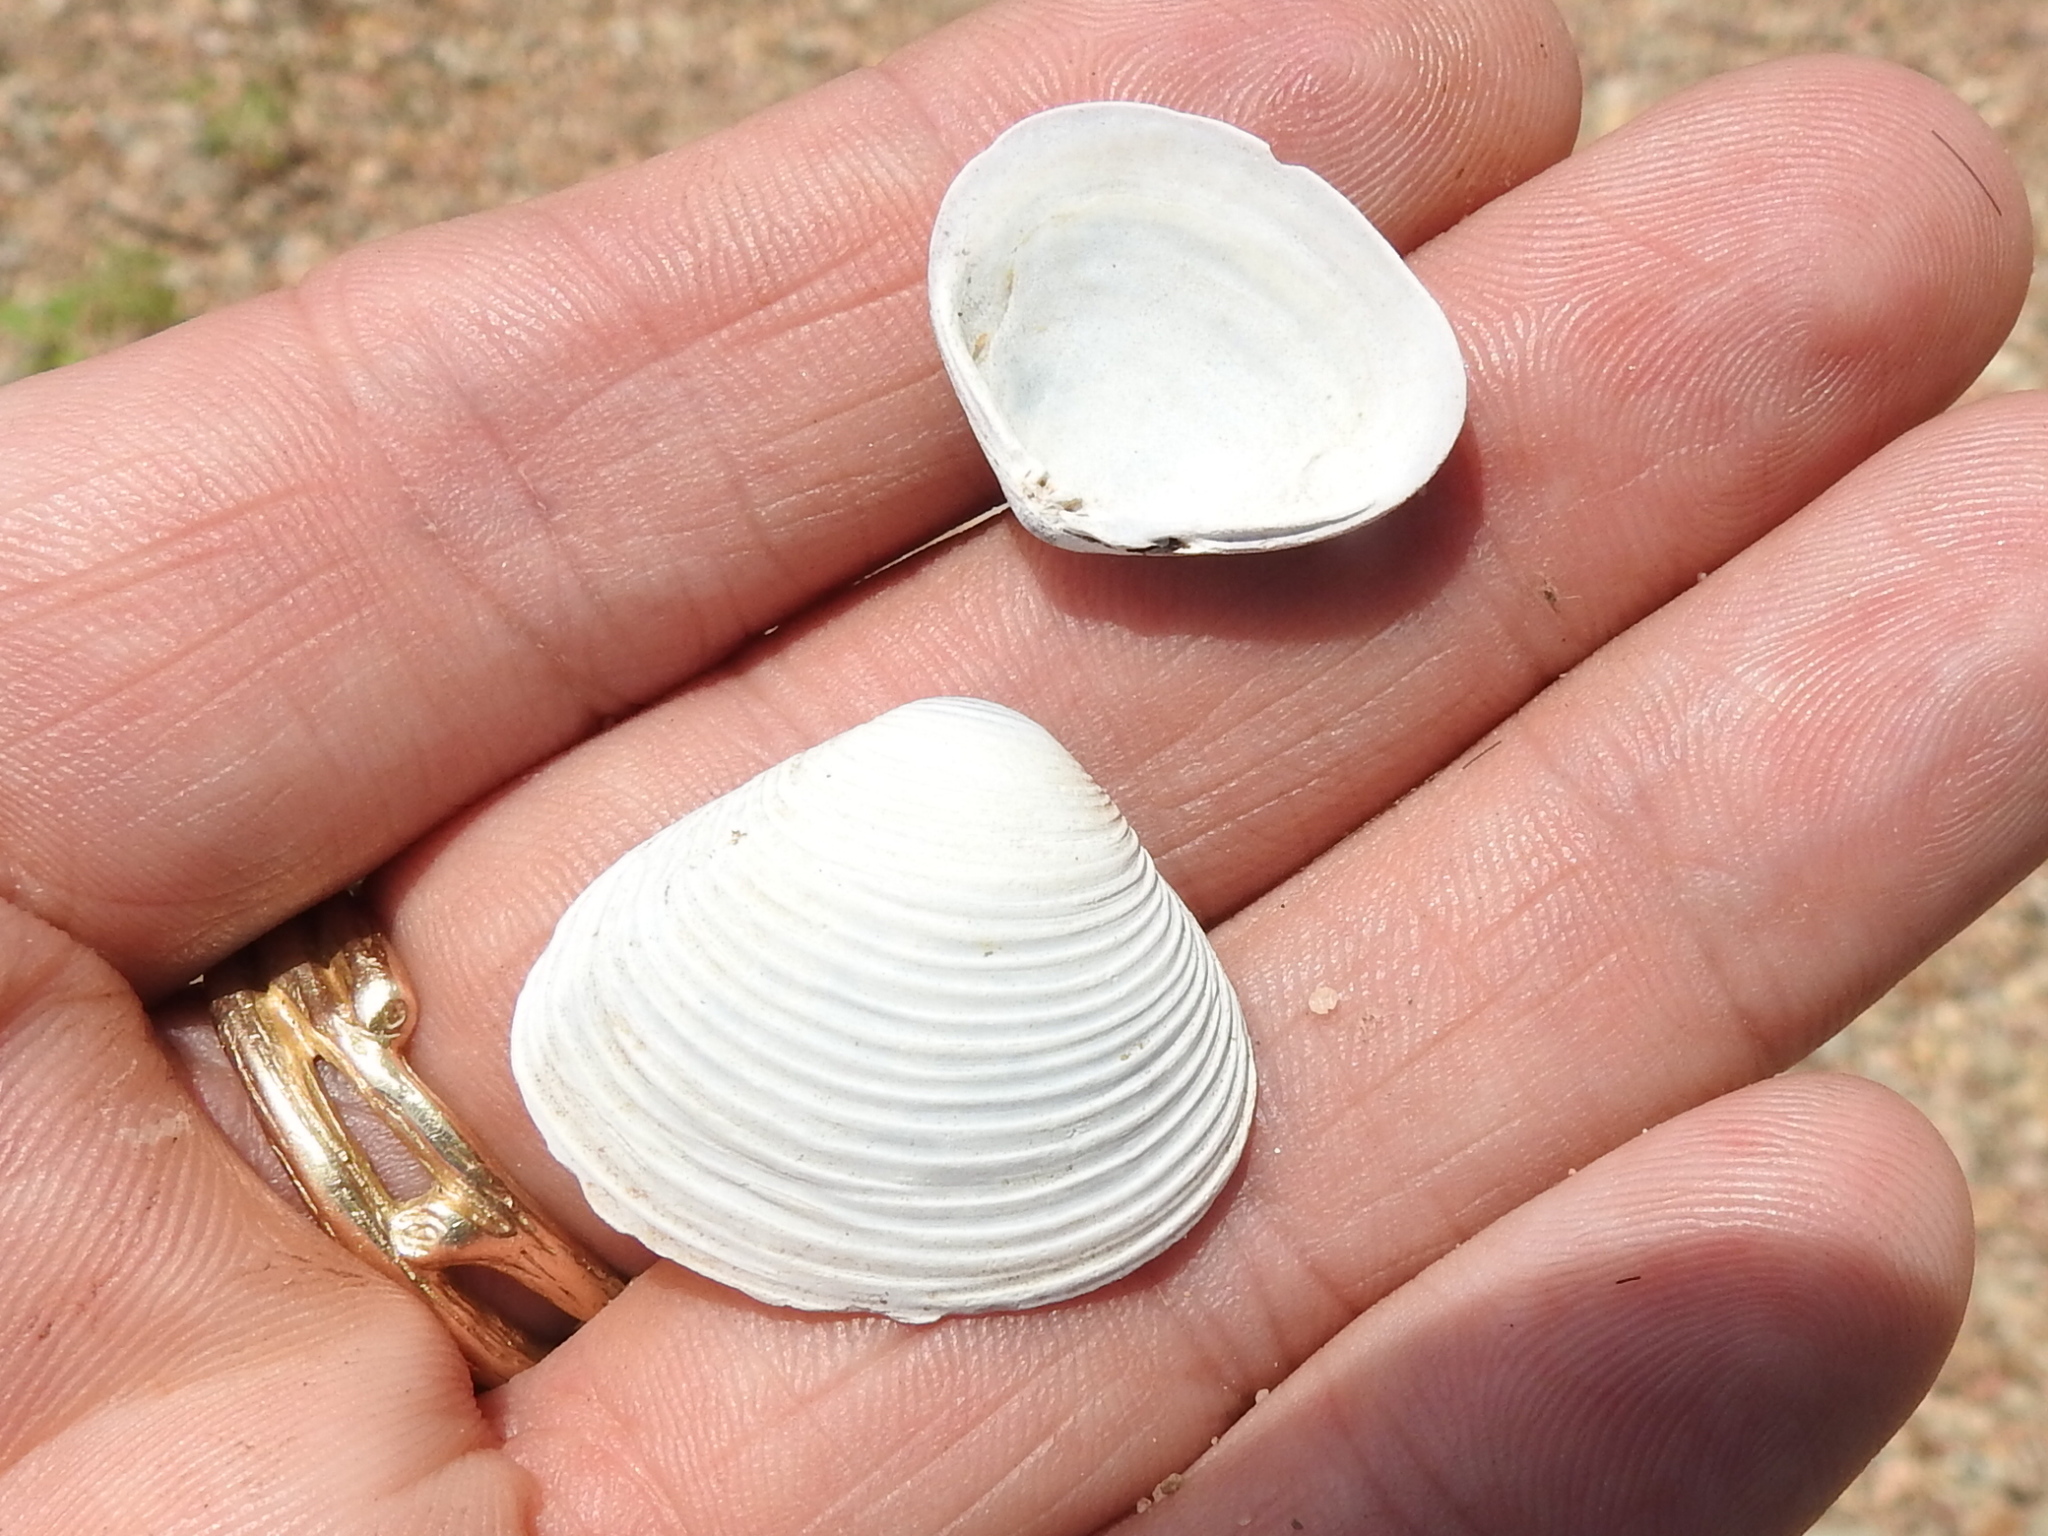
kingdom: Animalia
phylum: Mollusca
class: Bivalvia
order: Venerida
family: Cyrenidae
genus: Corbicula
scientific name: Corbicula fluminea
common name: Asian clam
